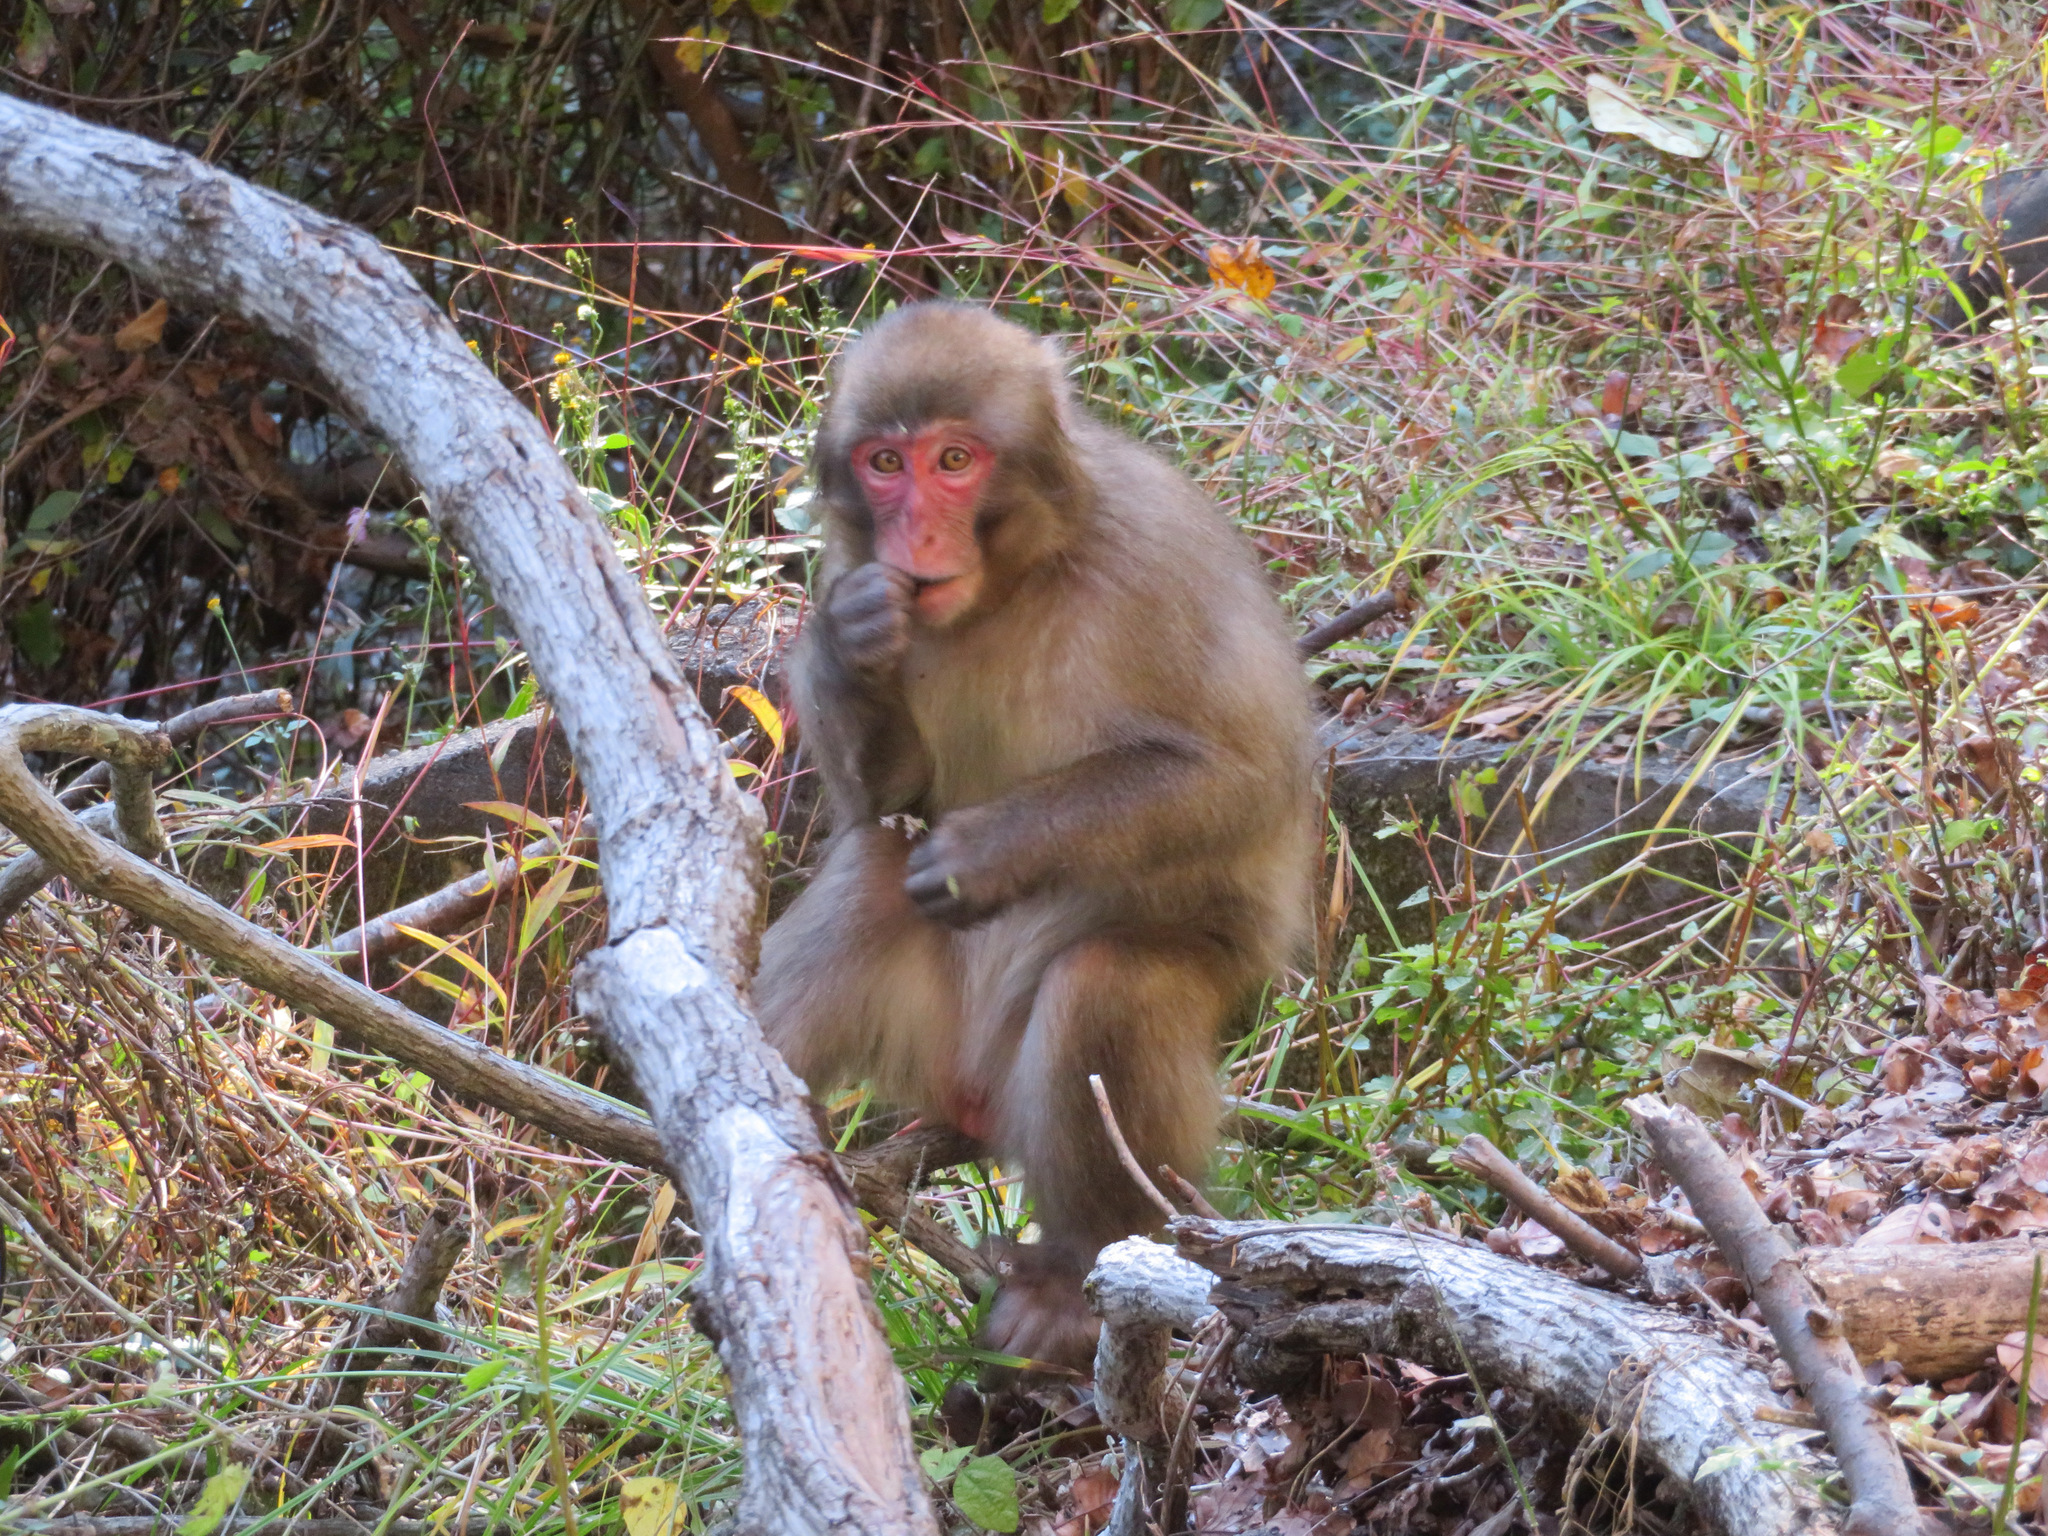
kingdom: Animalia
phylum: Chordata
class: Mammalia
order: Primates
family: Cercopithecidae
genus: Macaca
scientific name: Macaca fuscata
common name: Japanese macaque
